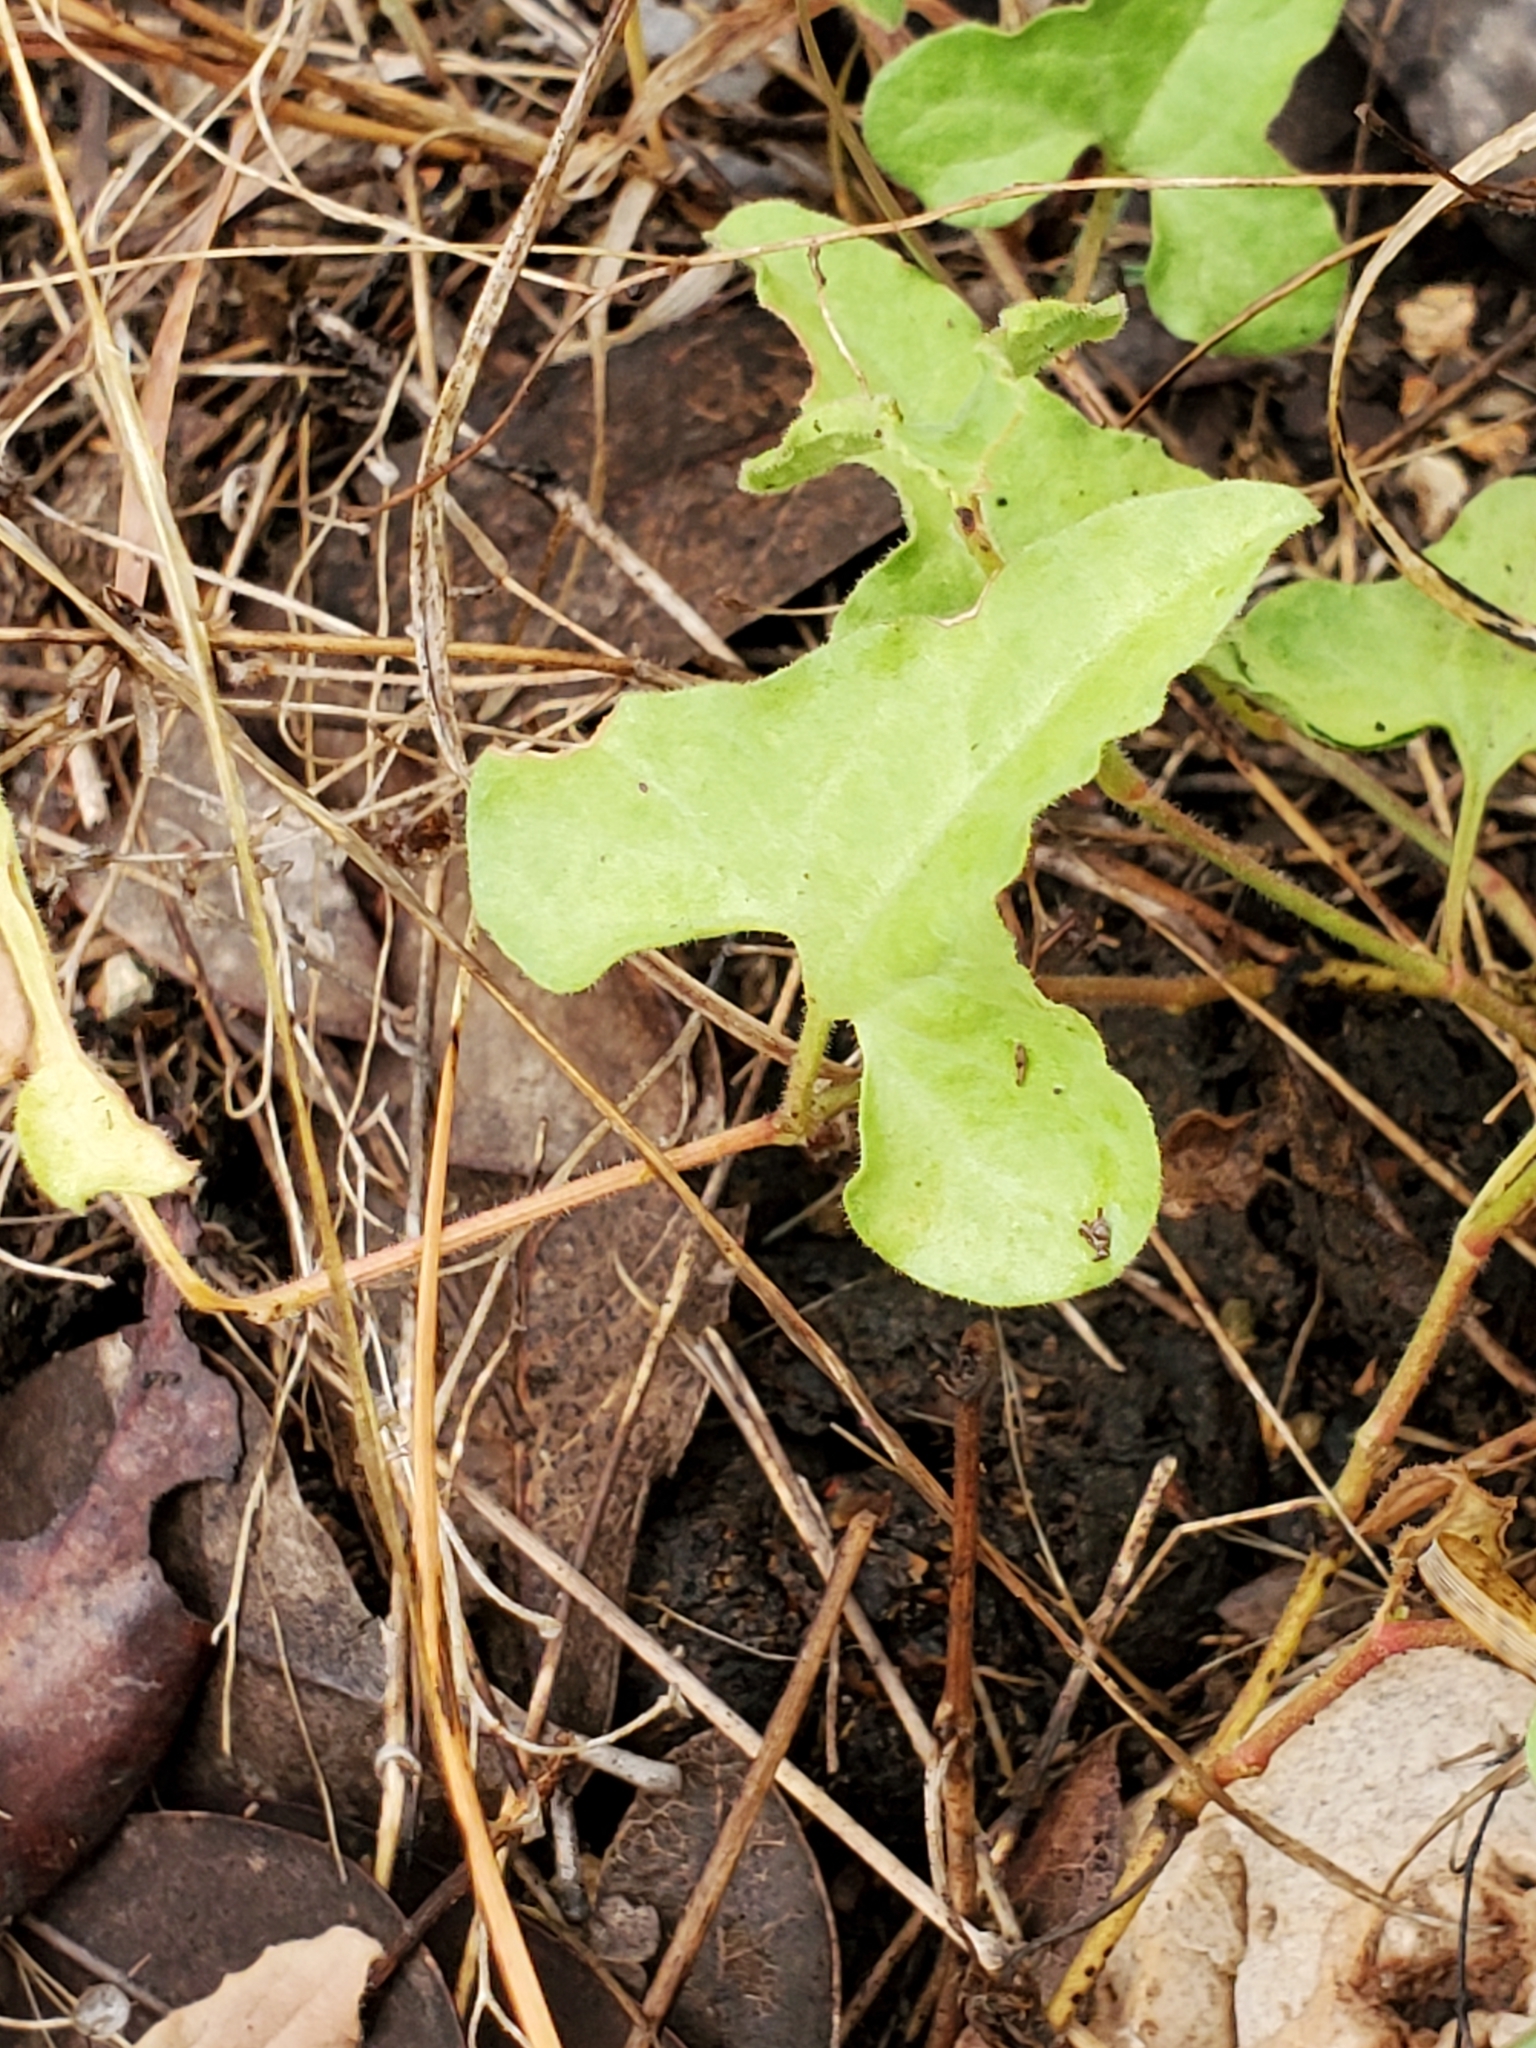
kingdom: Plantae
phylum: Tracheophyta
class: Magnoliopsida
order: Piperales
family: Aristolochiaceae
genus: Aristolochia
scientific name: Aristolochia coryi
